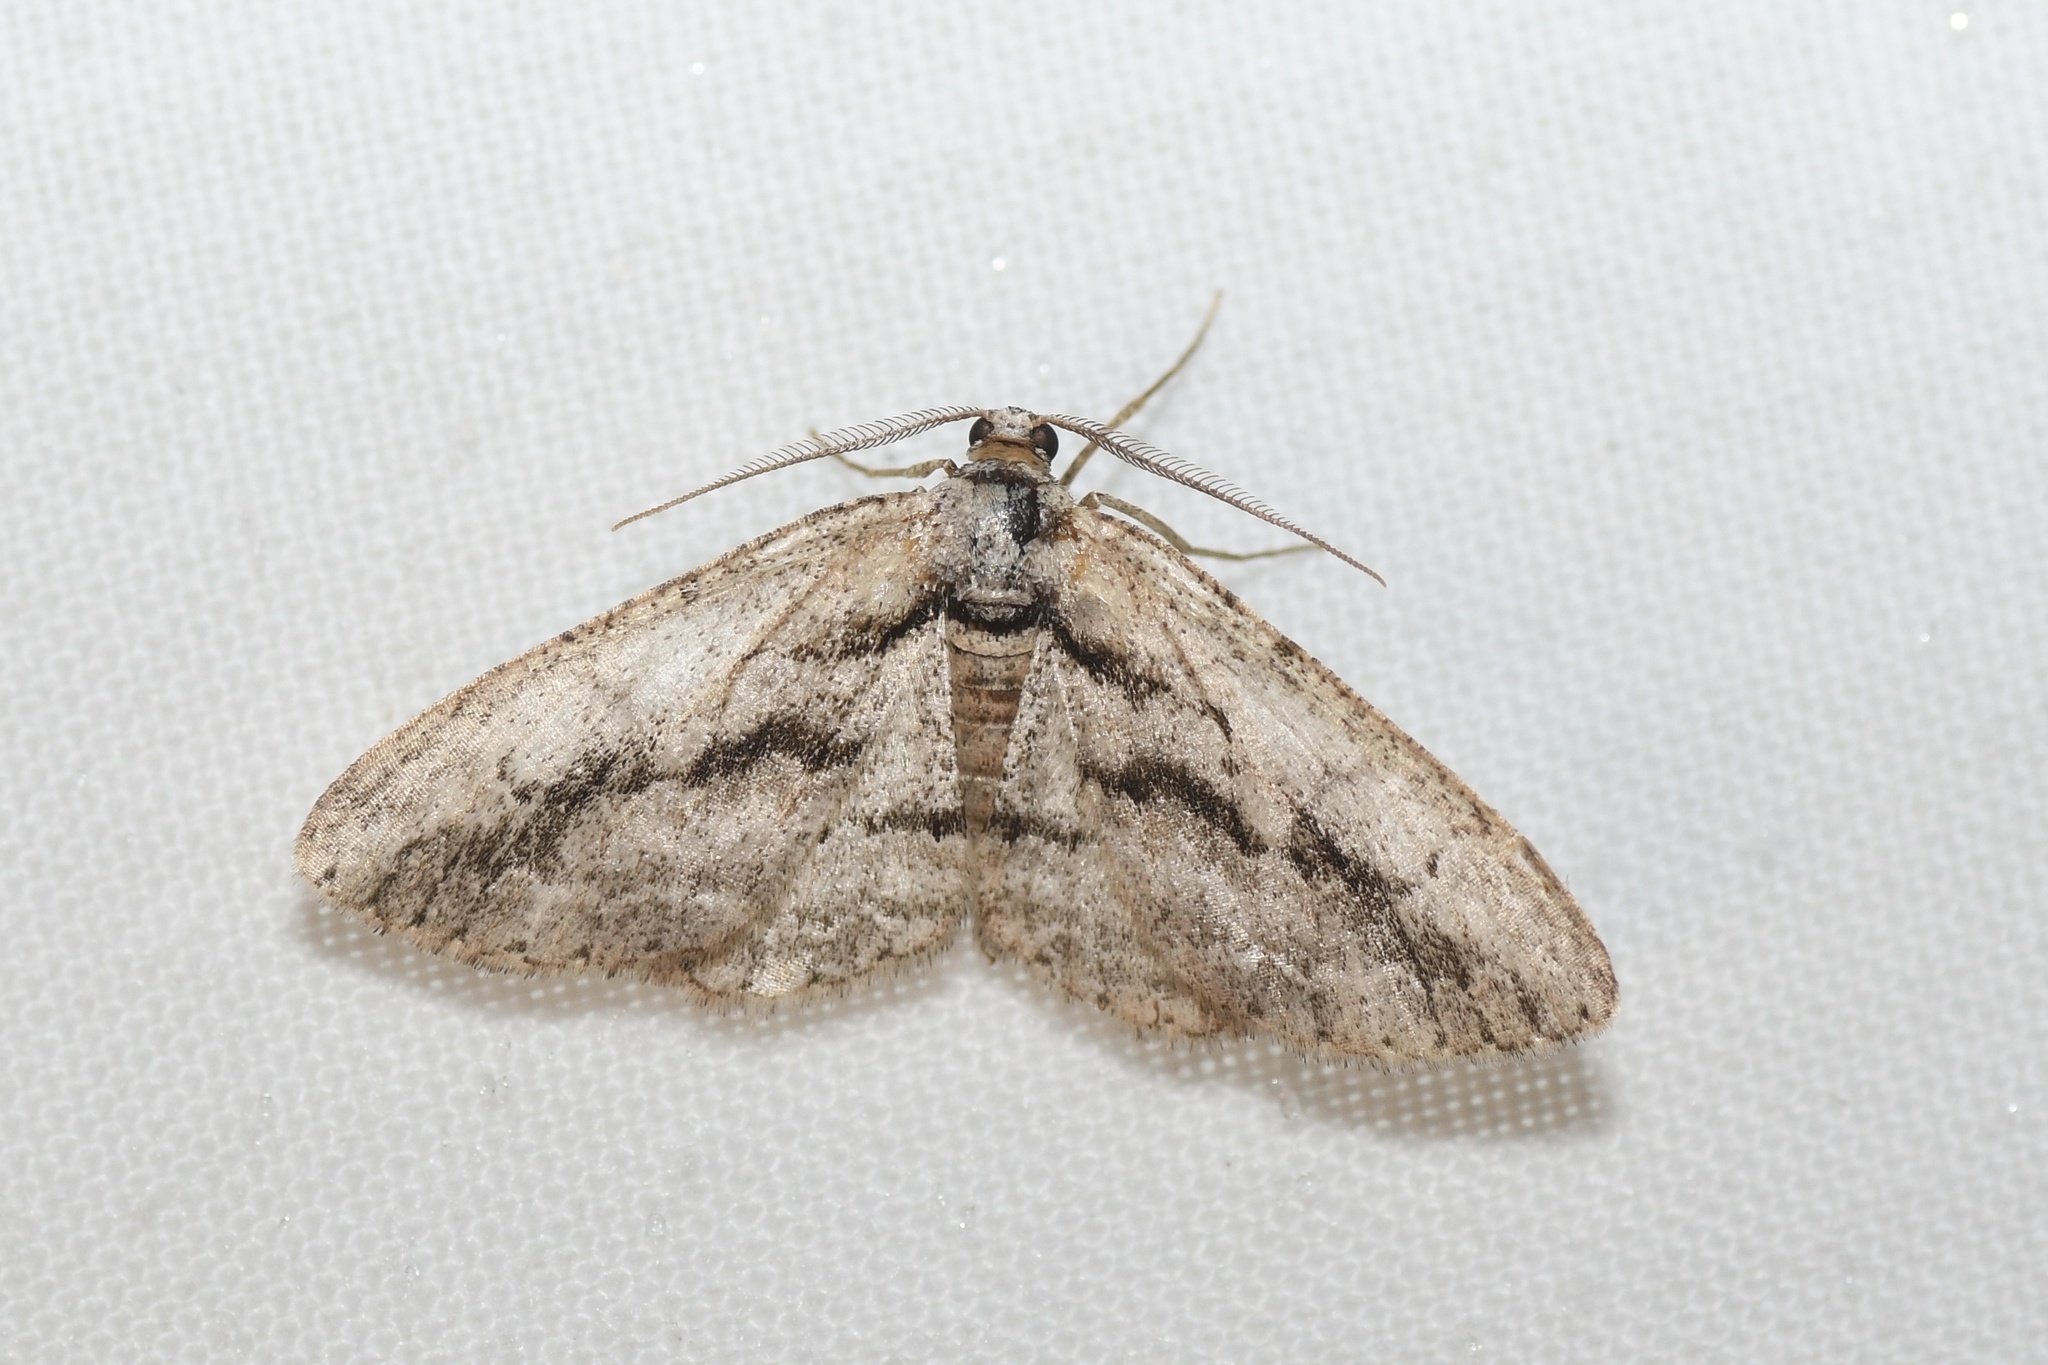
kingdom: Animalia
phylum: Arthropoda
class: Insecta
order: Lepidoptera
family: Geometridae
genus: Anavitrinella
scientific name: Anavitrinella pampinaria
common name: Common gray
